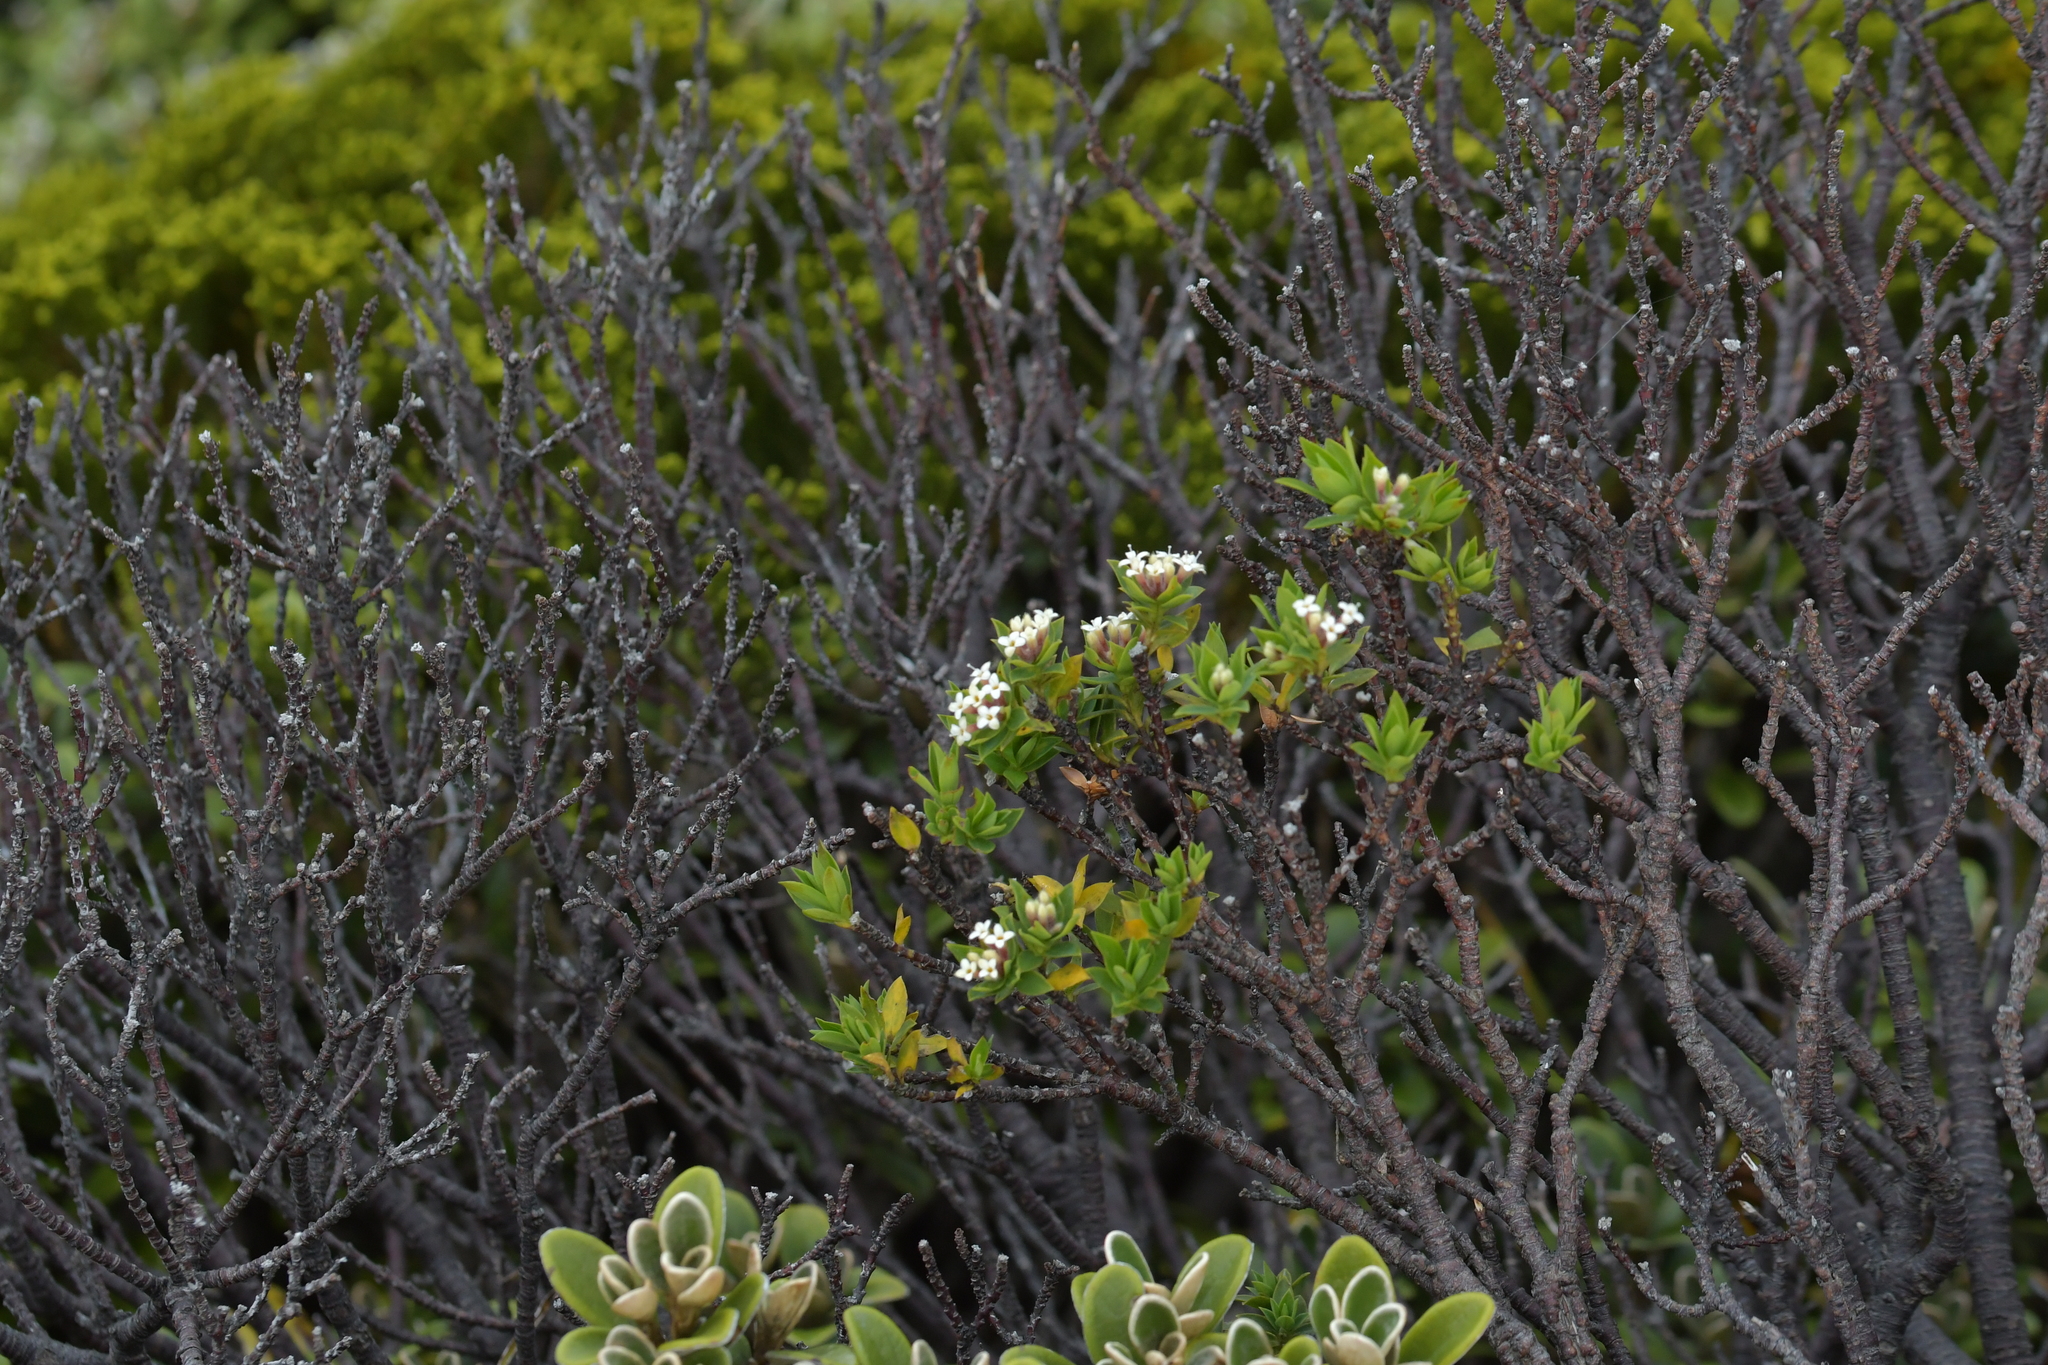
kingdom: Plantae
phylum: Tracheophyta
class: Magnoliopsida
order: Malvales
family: Thymelaeaceae
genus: Pimelea
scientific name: Pimelea gnidia
